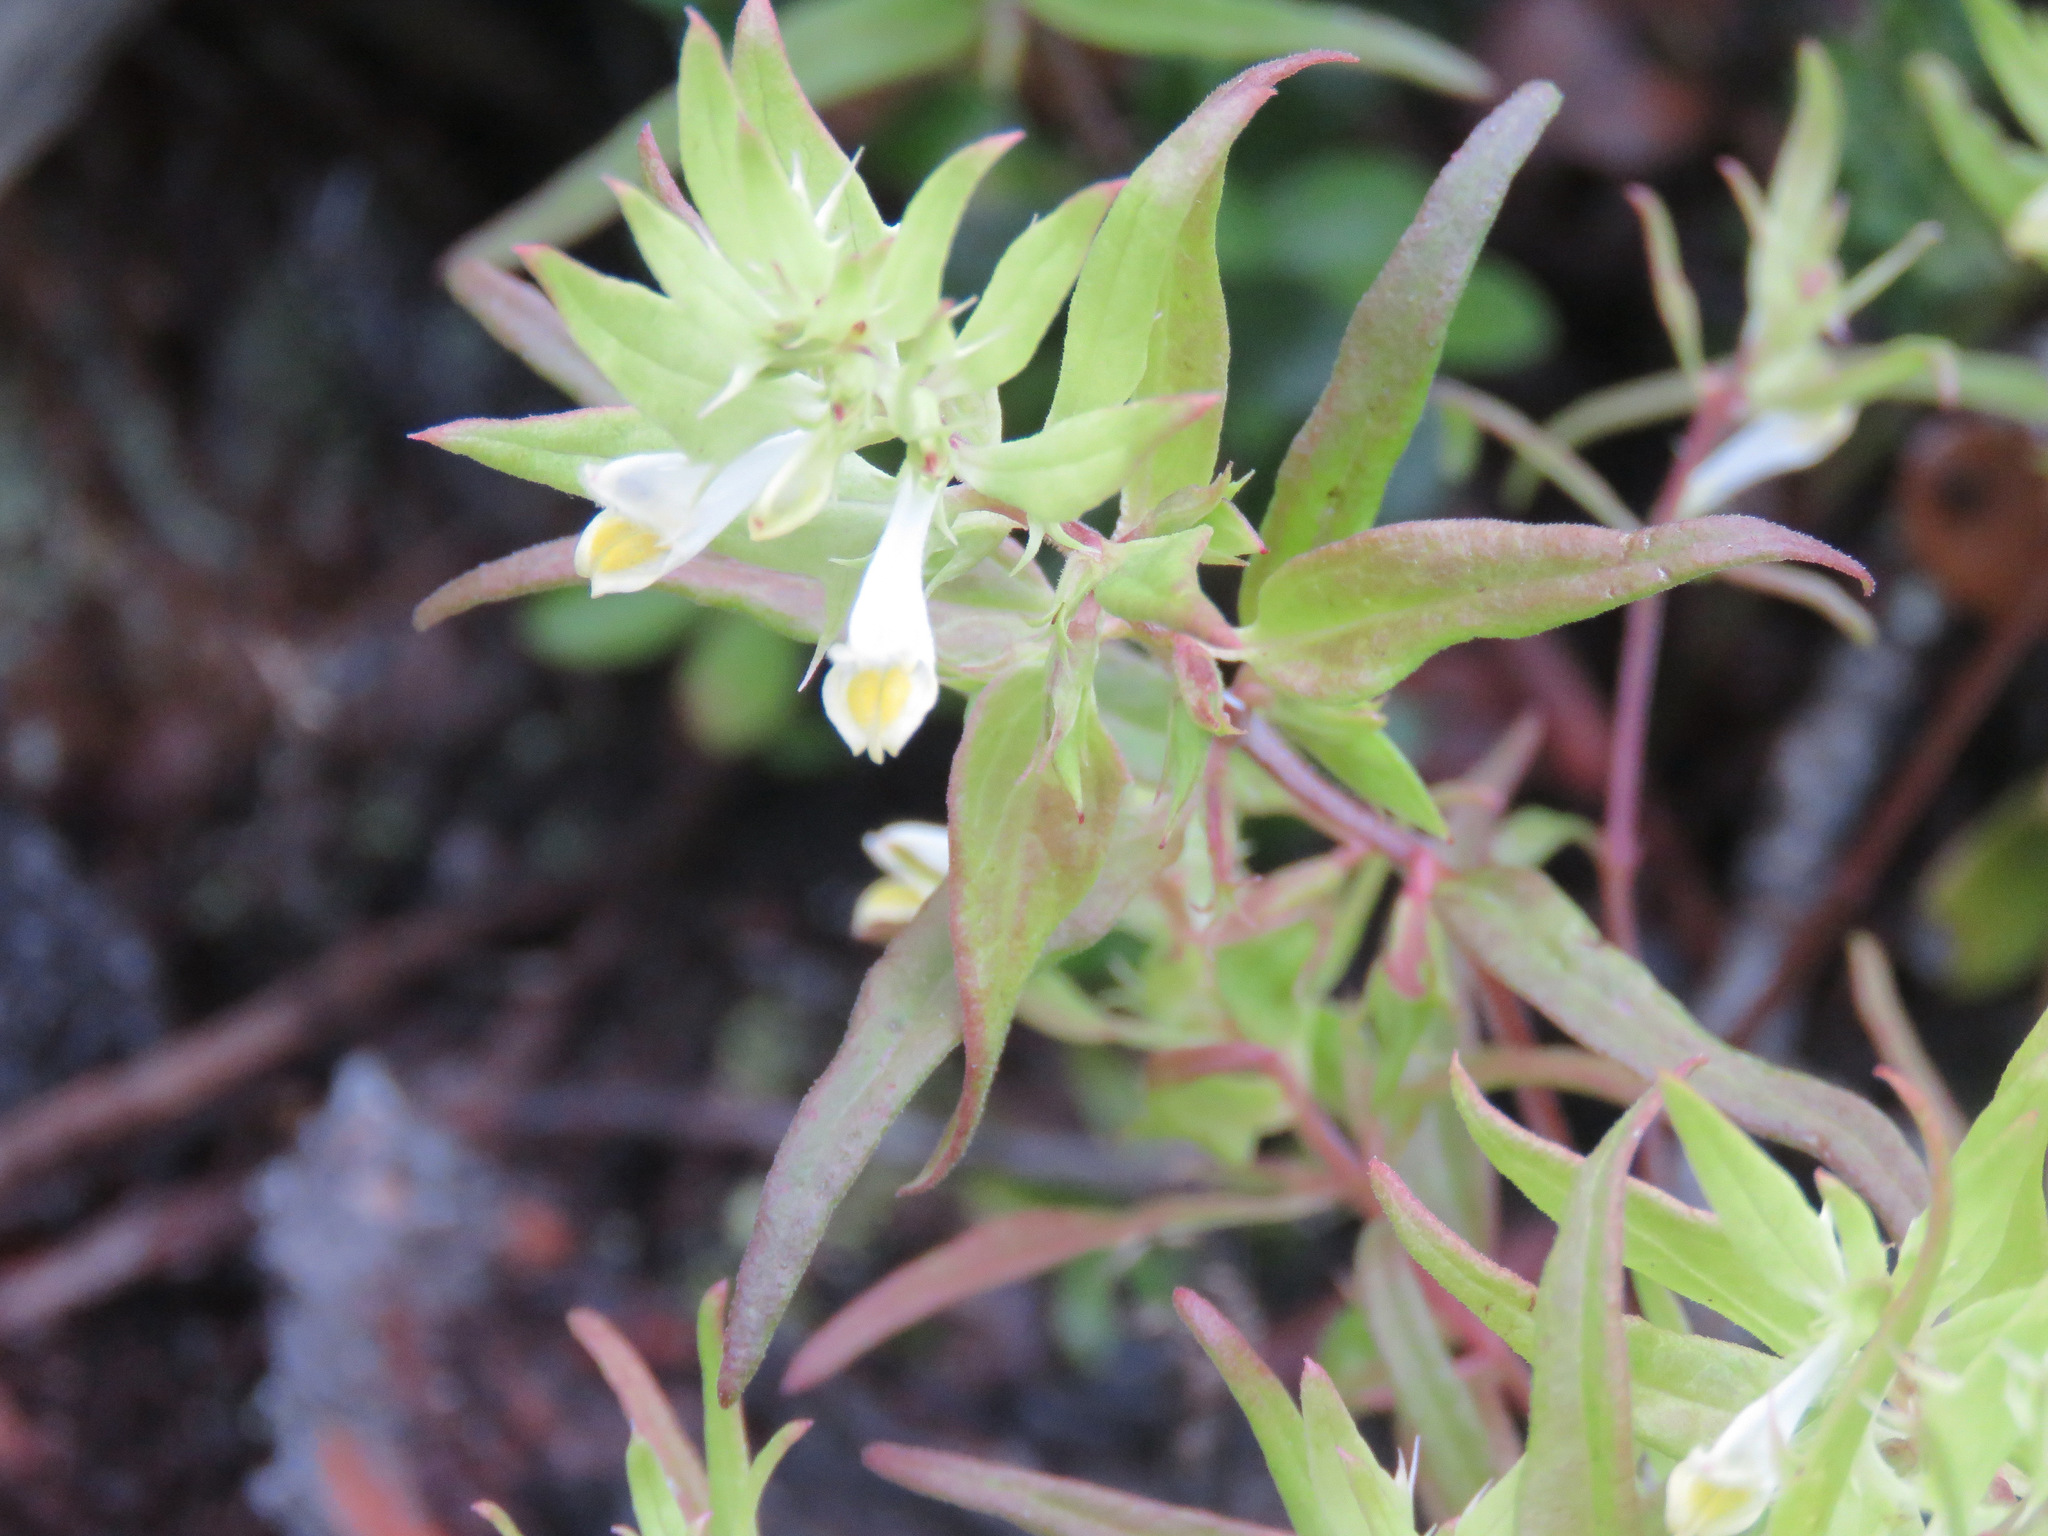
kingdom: Plantae
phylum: Tracheophyta
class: Magnoliopsida
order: Lamiales
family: Orobanchaceae
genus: Melampyrum
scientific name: Melampyrum lineare
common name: American cow-wheat
